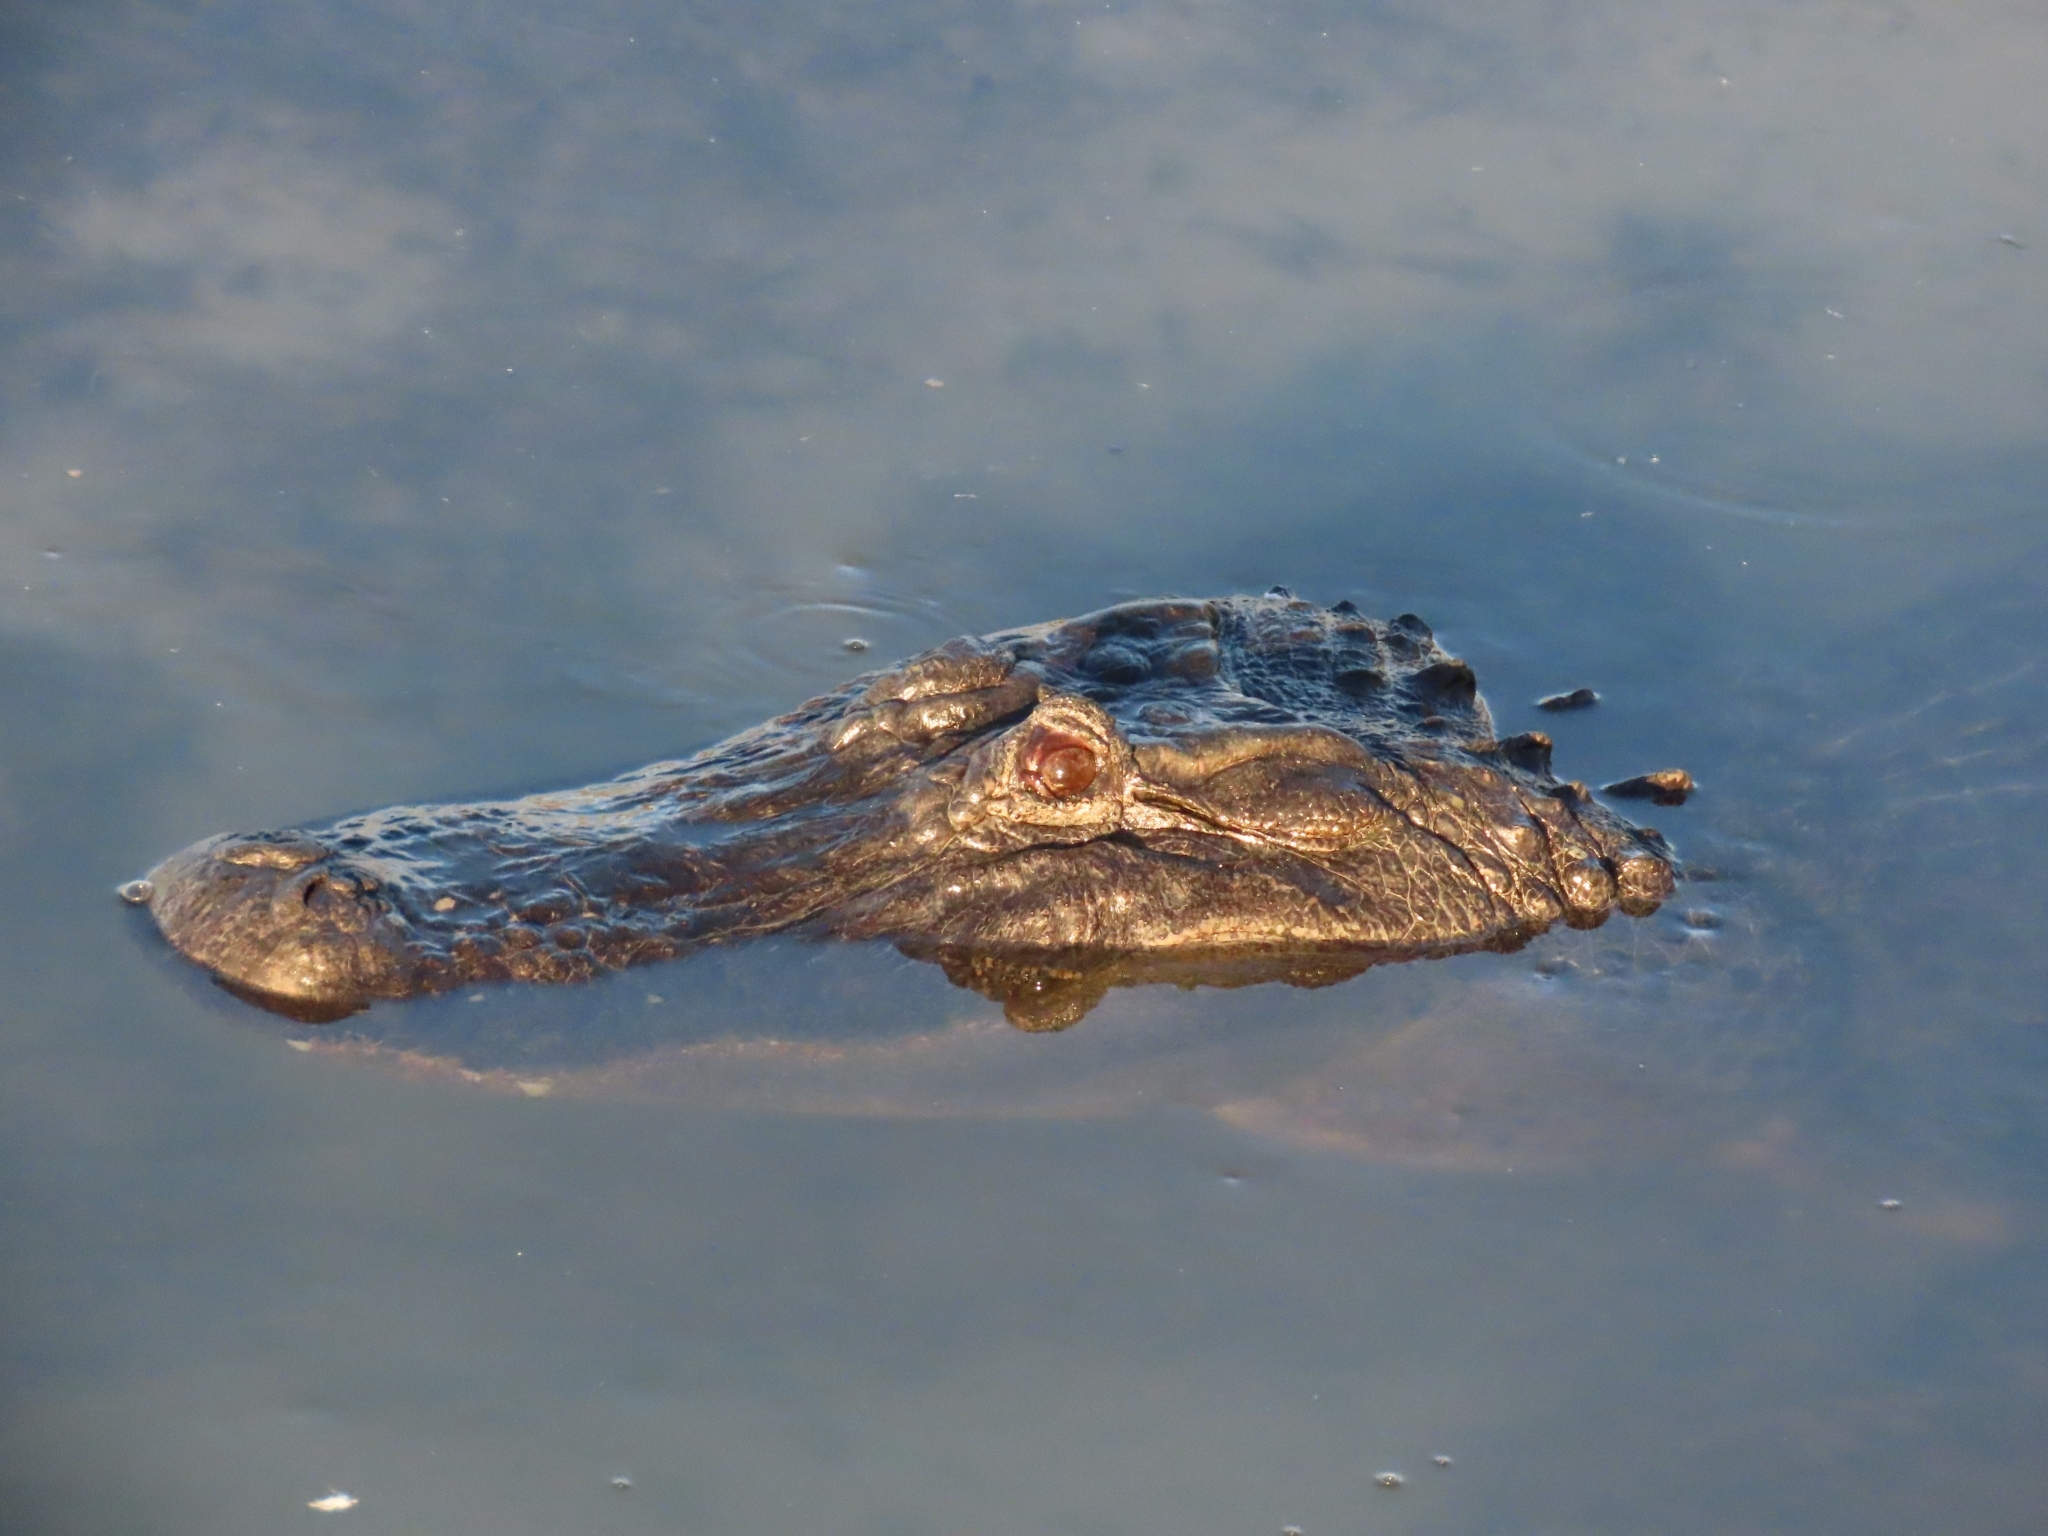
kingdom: Animalia
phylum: Chordata
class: Crocodylia
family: Alligatoridae
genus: Alligator
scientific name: Alligator mississippiensis
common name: American alligator
